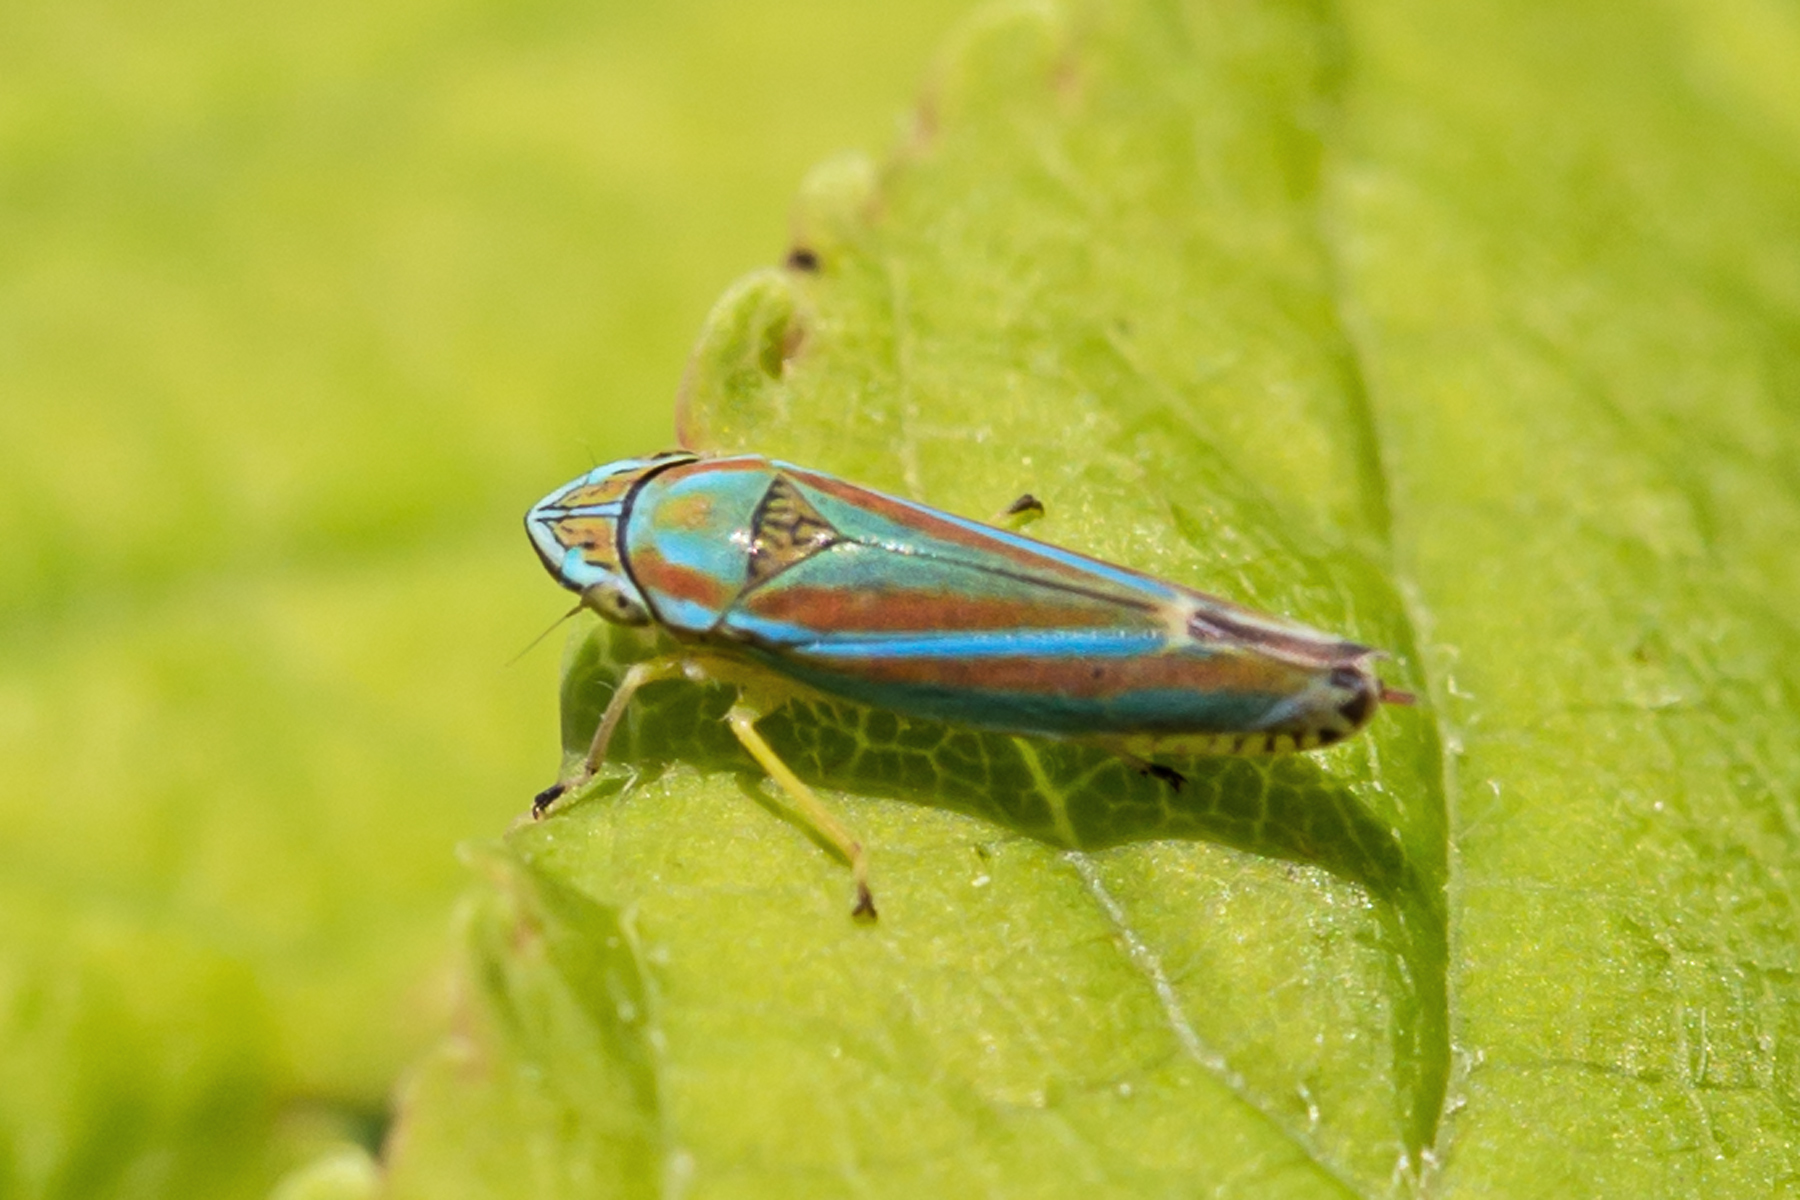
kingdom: Animalia
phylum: Arthropoda
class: Insecta
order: Hemiptera
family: Cicadellidae
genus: Graphocephala
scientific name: Graphocephala versuta
